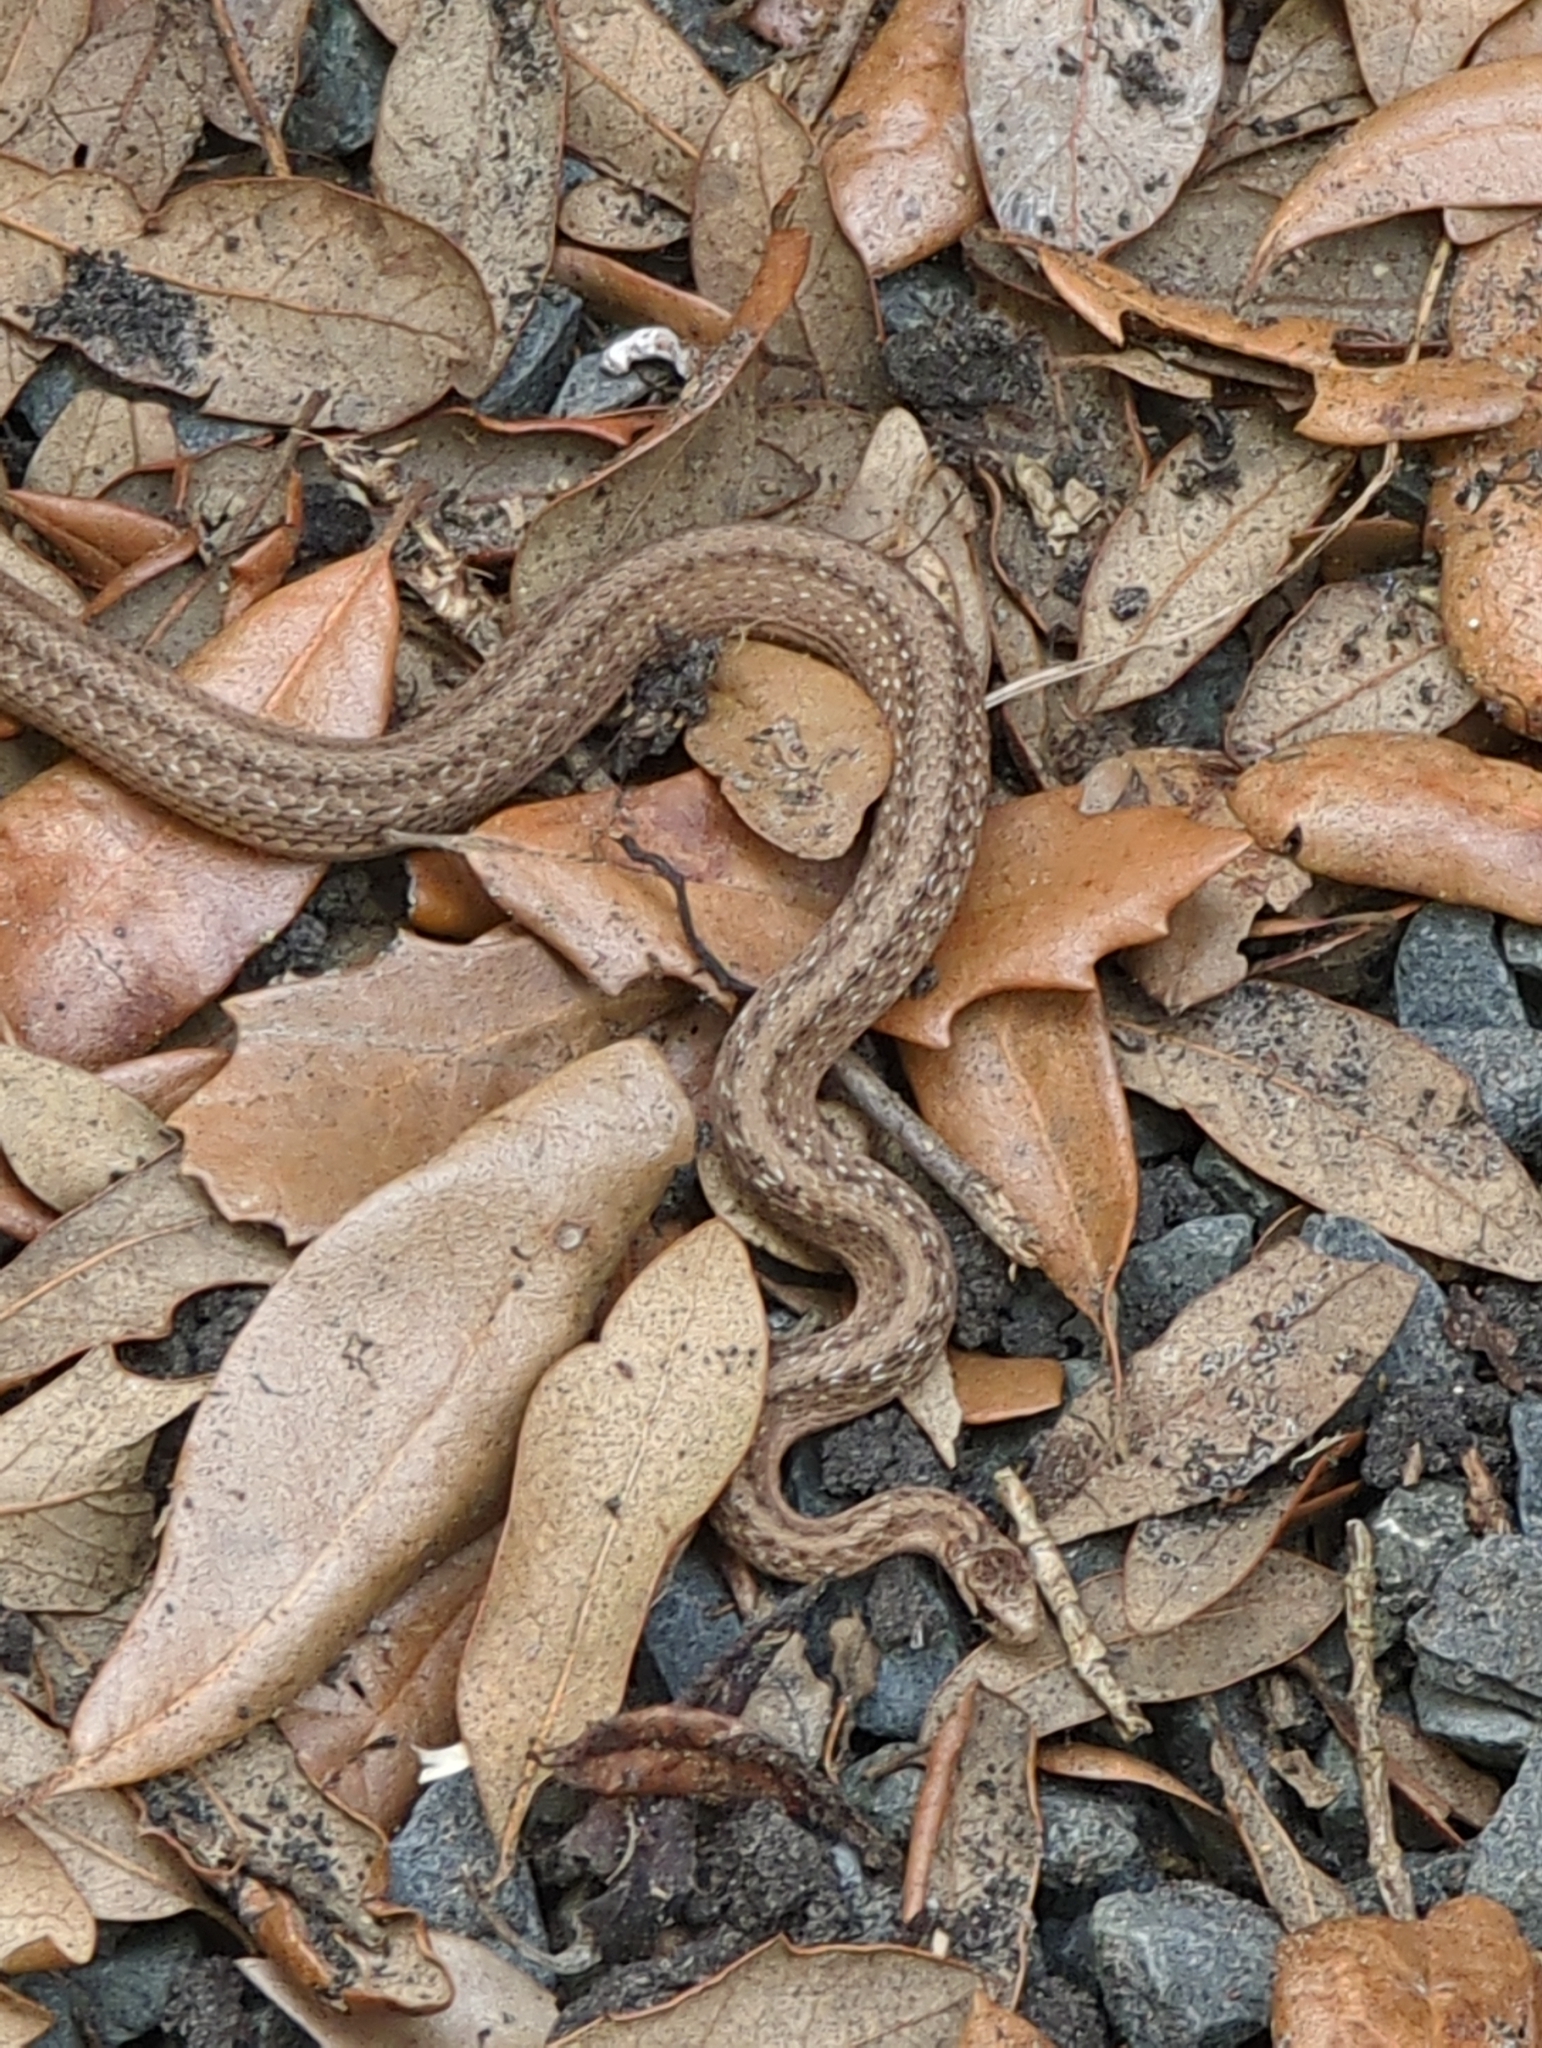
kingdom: Animalia
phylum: Chordata
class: Squamata
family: Colubridae
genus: Storeria
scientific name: Storeria dekayi
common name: (dekay’s) brown snake
